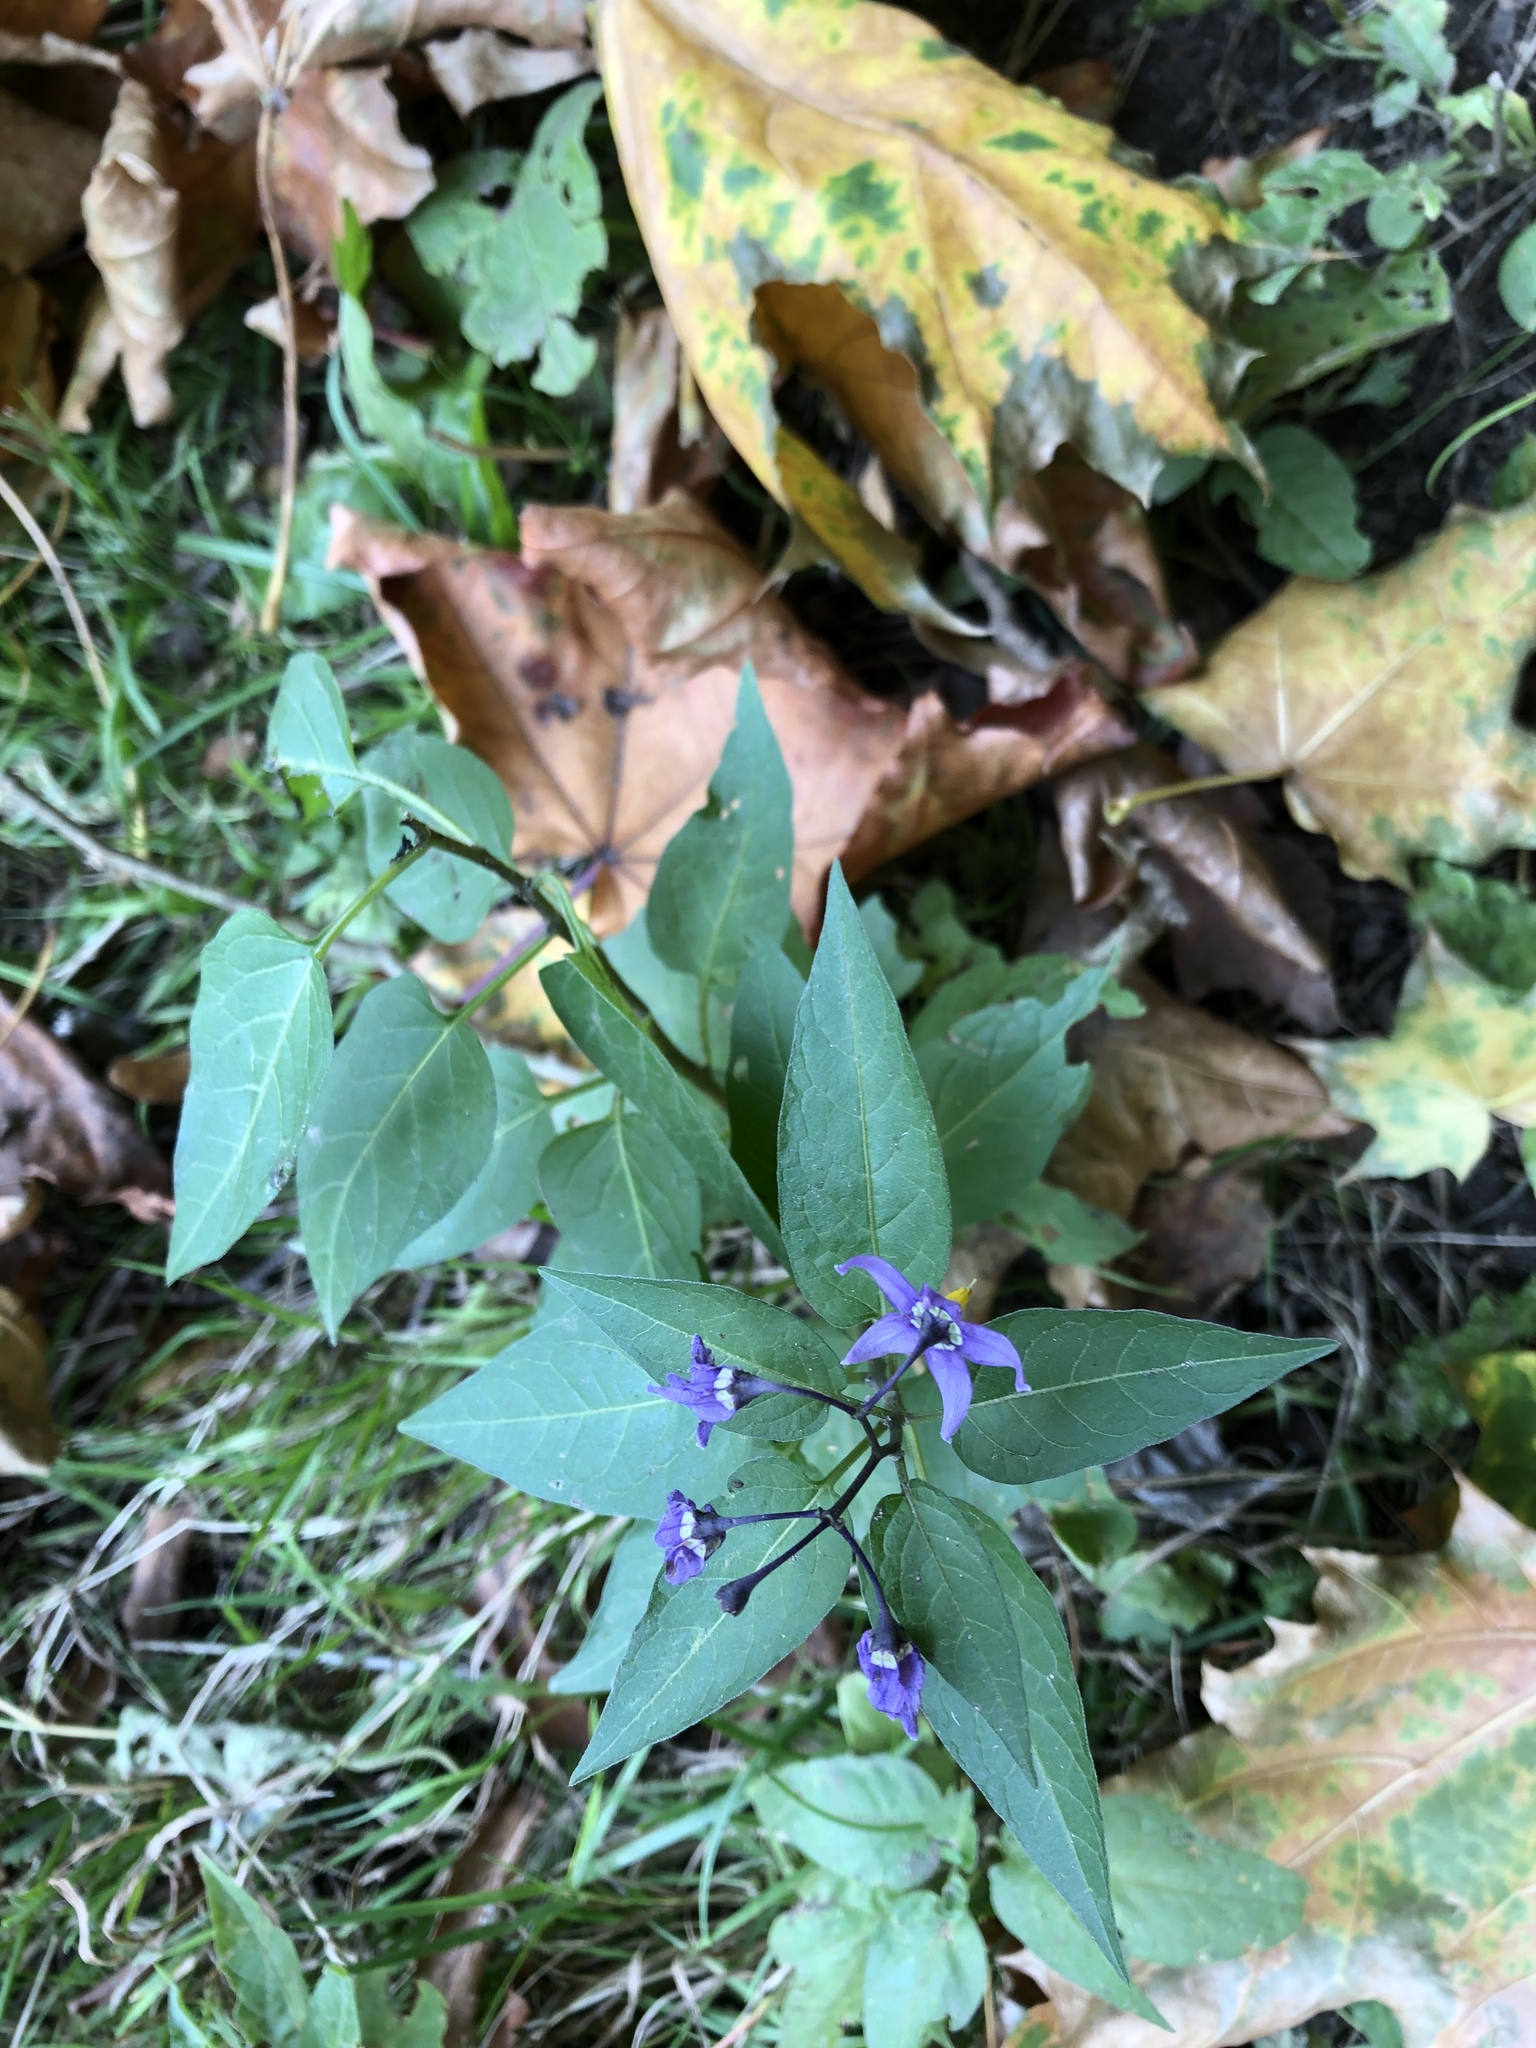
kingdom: Plantae
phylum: Tracheophyta
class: Magnoliopsida
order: Solanales
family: Solanaceae
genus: Solanum
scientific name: Solanum dulcamara
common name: Climbing nightshade
